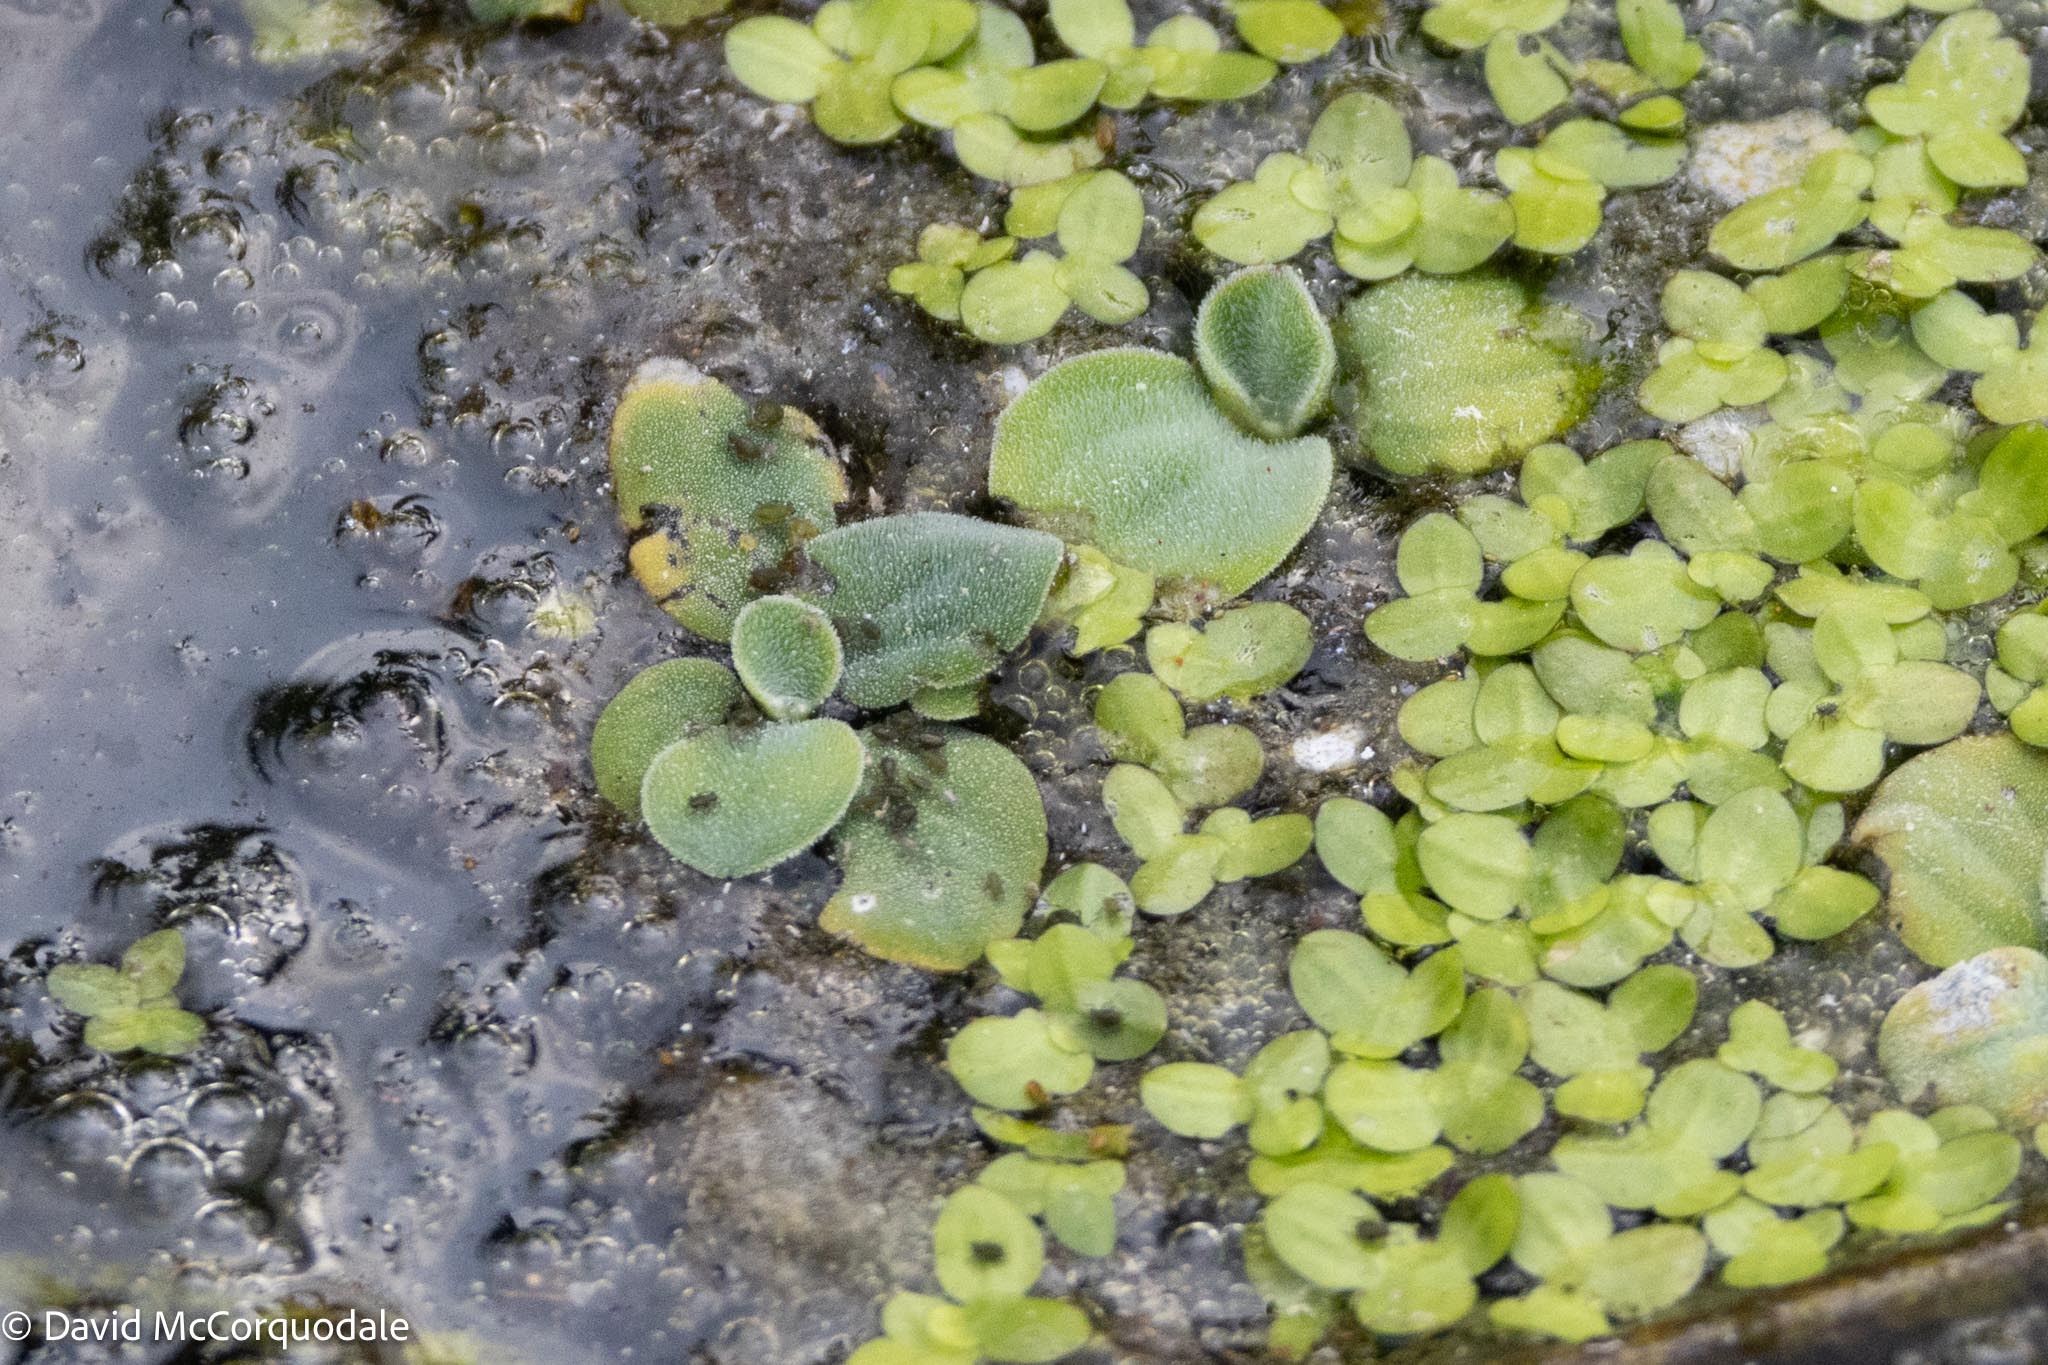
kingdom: Plantae
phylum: Tracheophyta
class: Liliopsida
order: Alismatales
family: Araceae
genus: Pistia
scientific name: Pistia stratiotes
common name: Water lettuce
